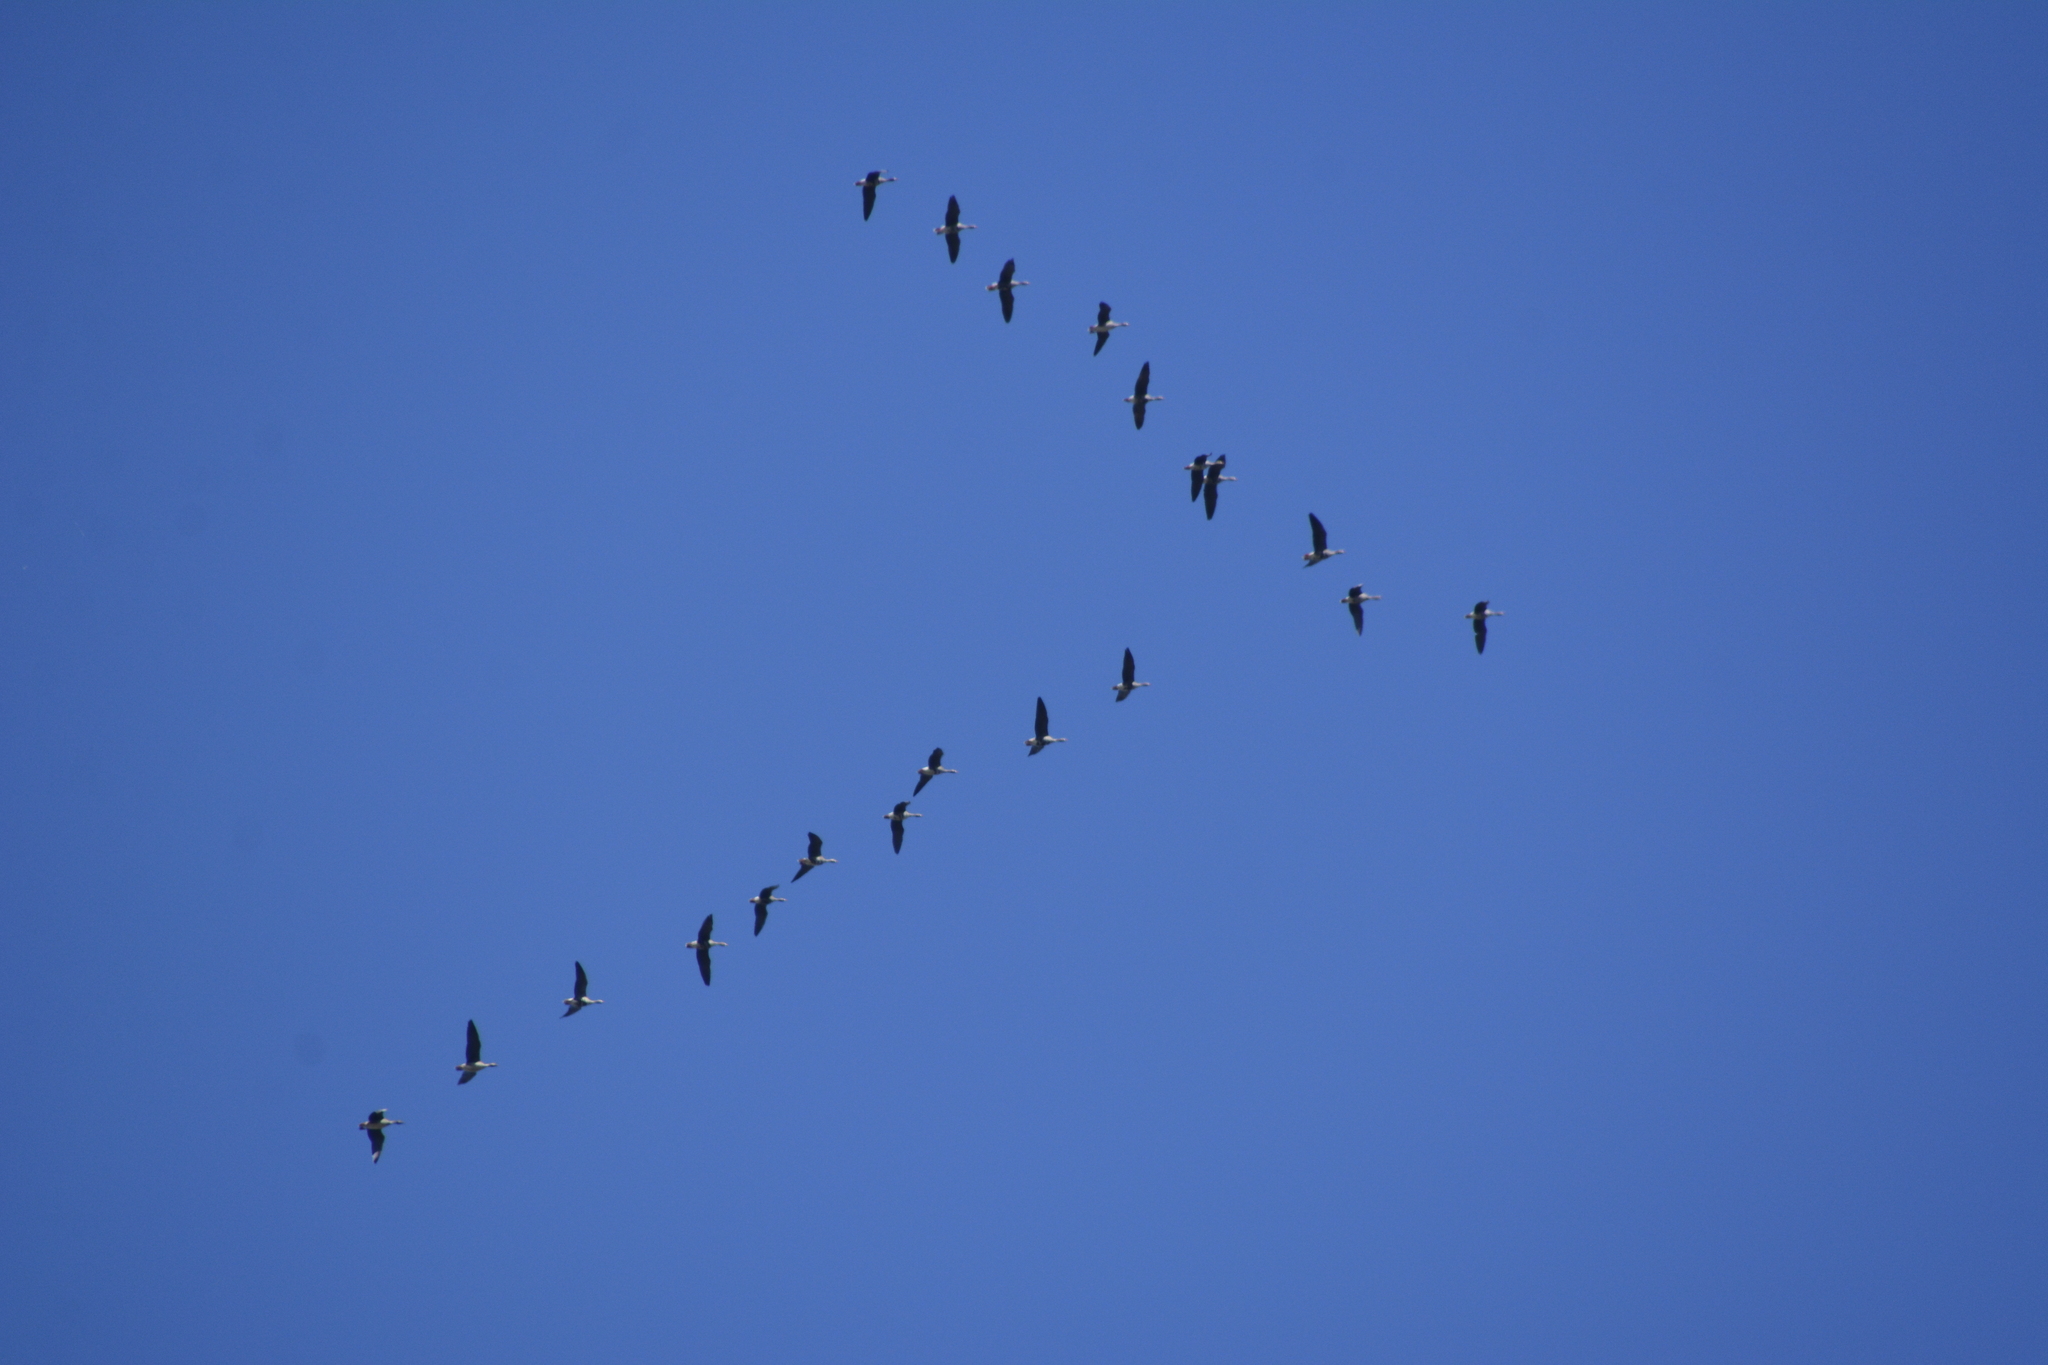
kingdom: Animalia
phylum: Chordata
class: Aves
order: Anseriformes
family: Anatidae
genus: Anser
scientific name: Anser albifrons
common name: Greater white-fronted goose
